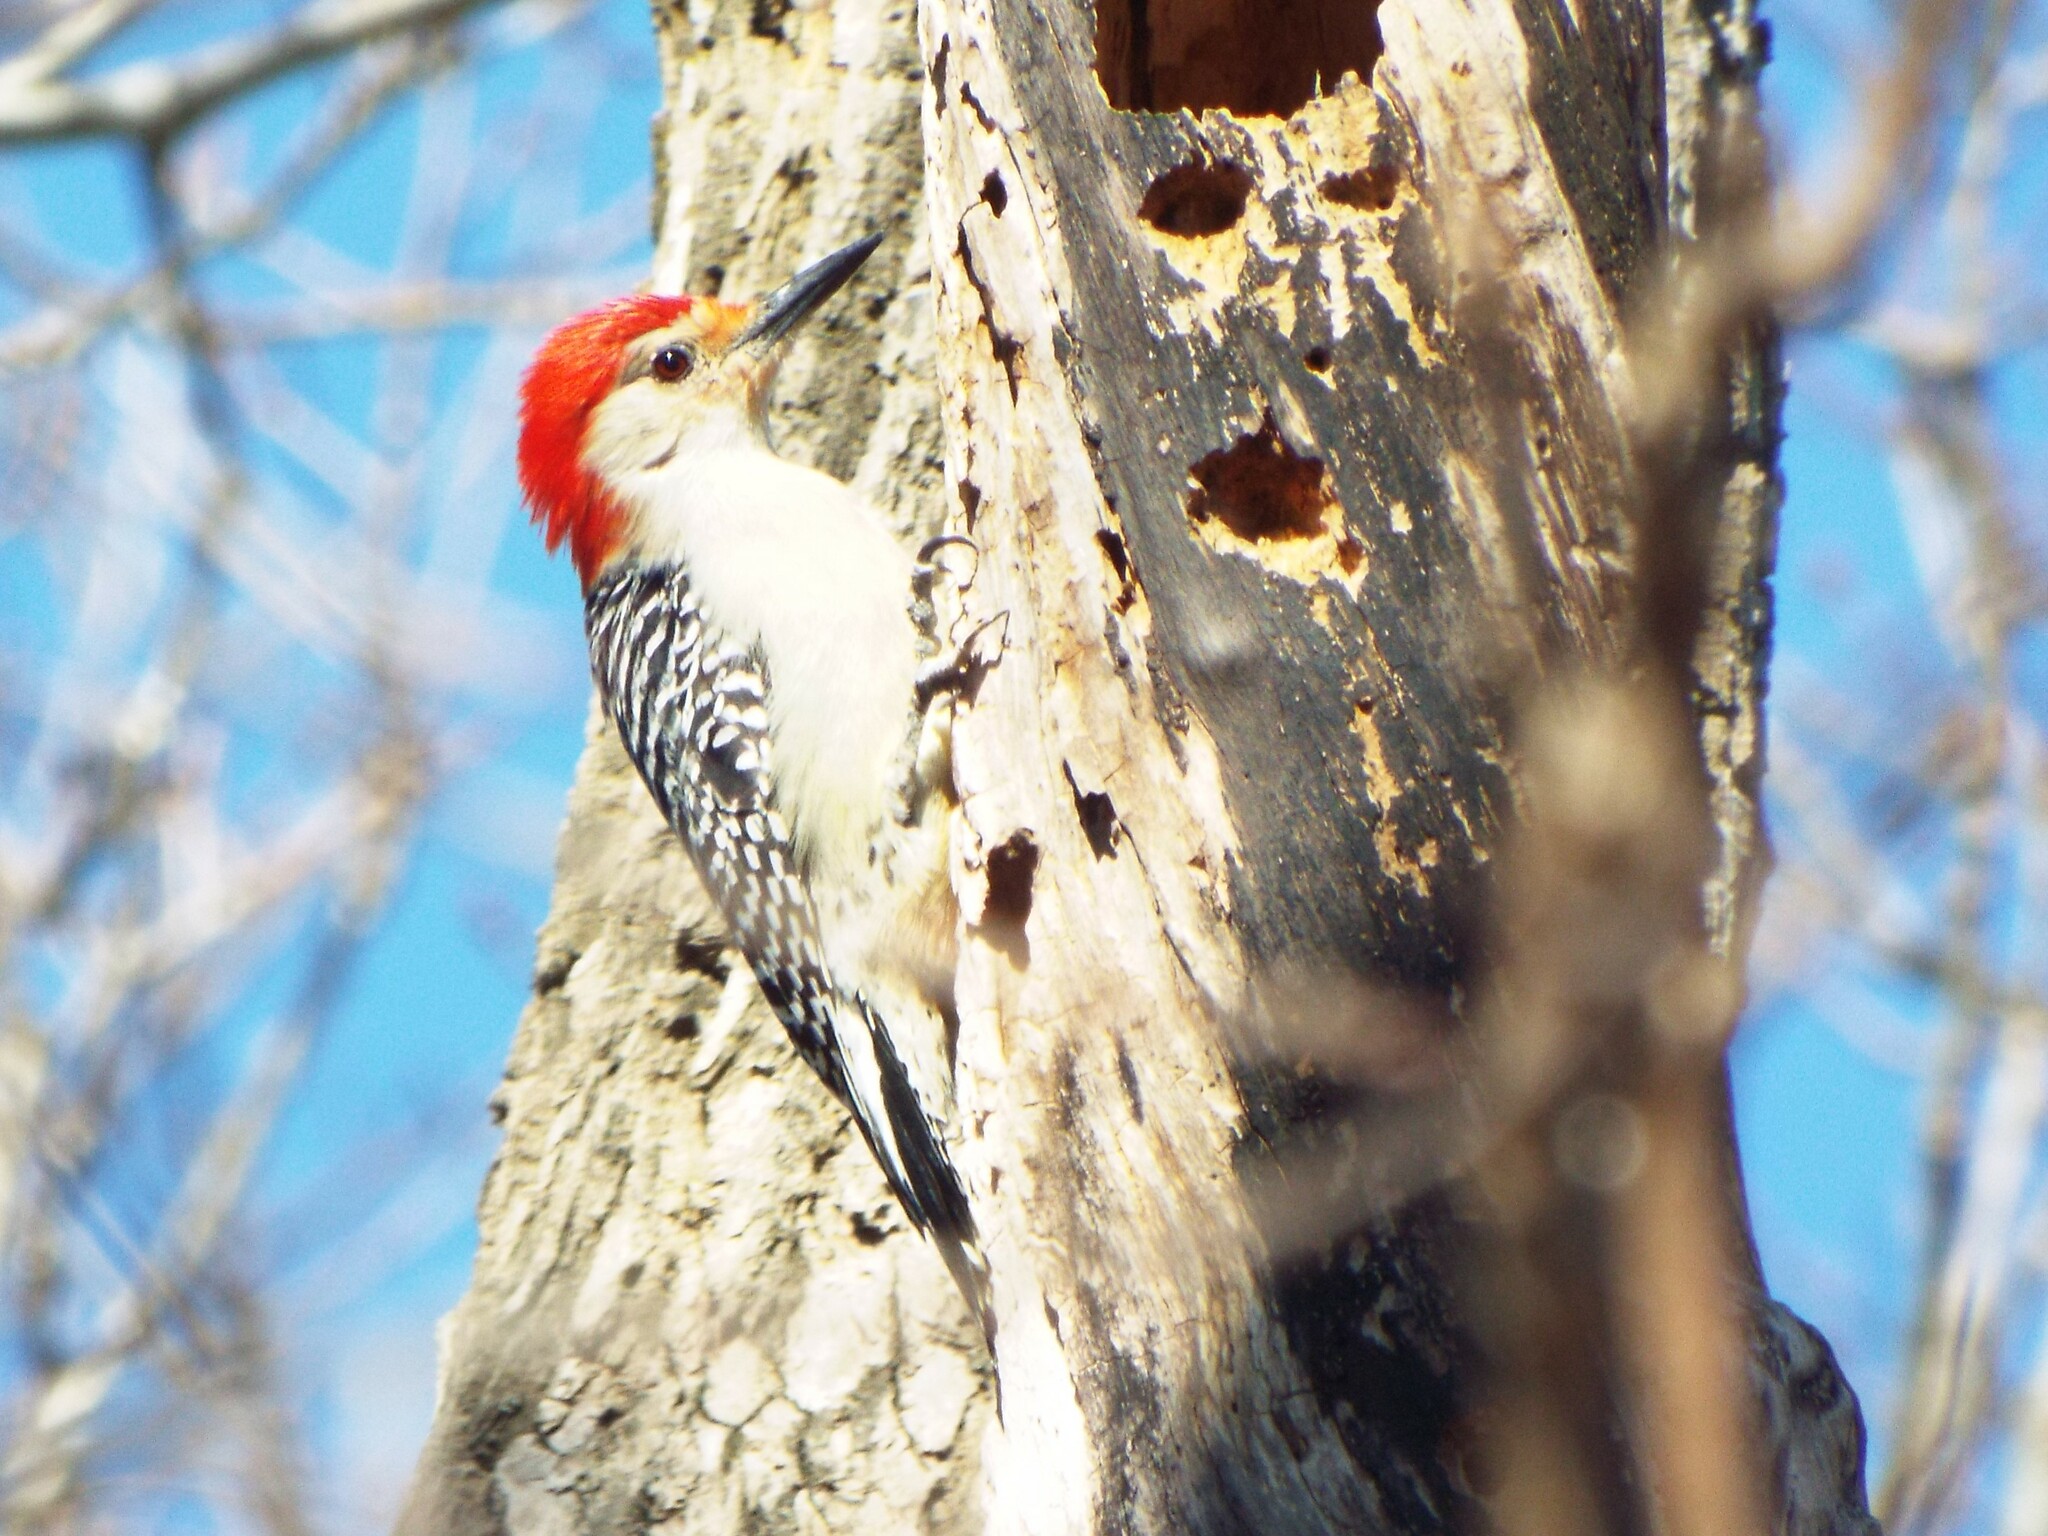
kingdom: Animalia
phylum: Chordata
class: Aves
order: Piciformes
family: Picidae
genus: Melanerpes
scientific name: Melanerpes carolinus
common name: Red-bellied woodpecker
